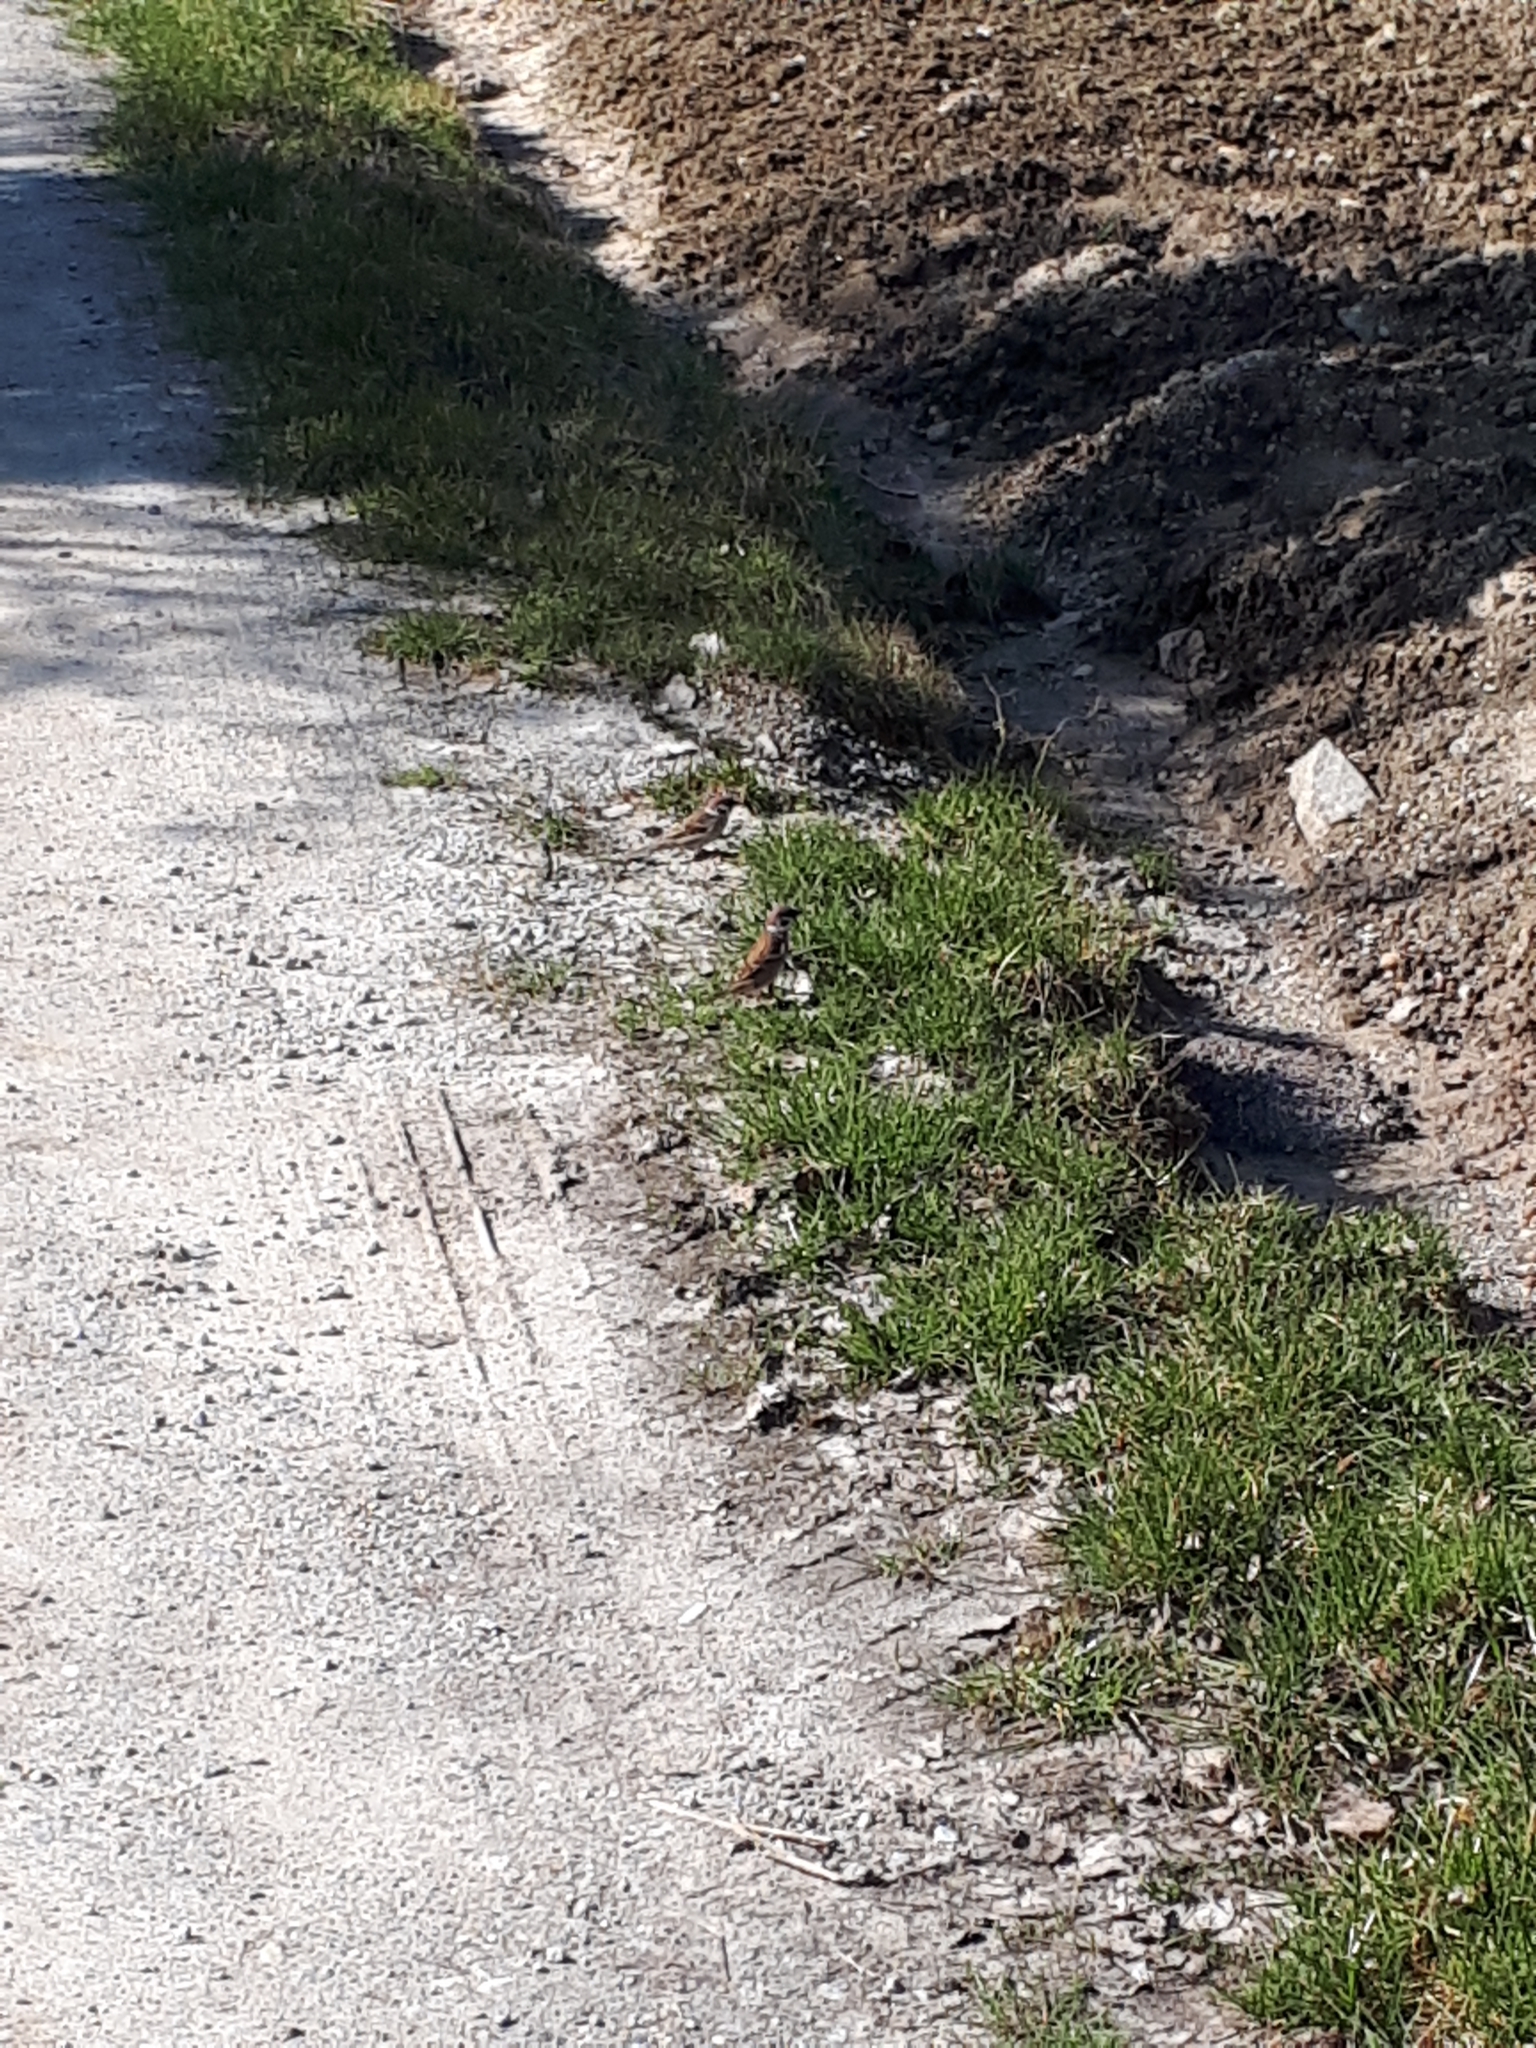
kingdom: Animalia
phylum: Chordata
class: Aves
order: Passeriformes
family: Passeridae
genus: Passer
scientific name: Passer montanus
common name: Eurasian tree sparrow
